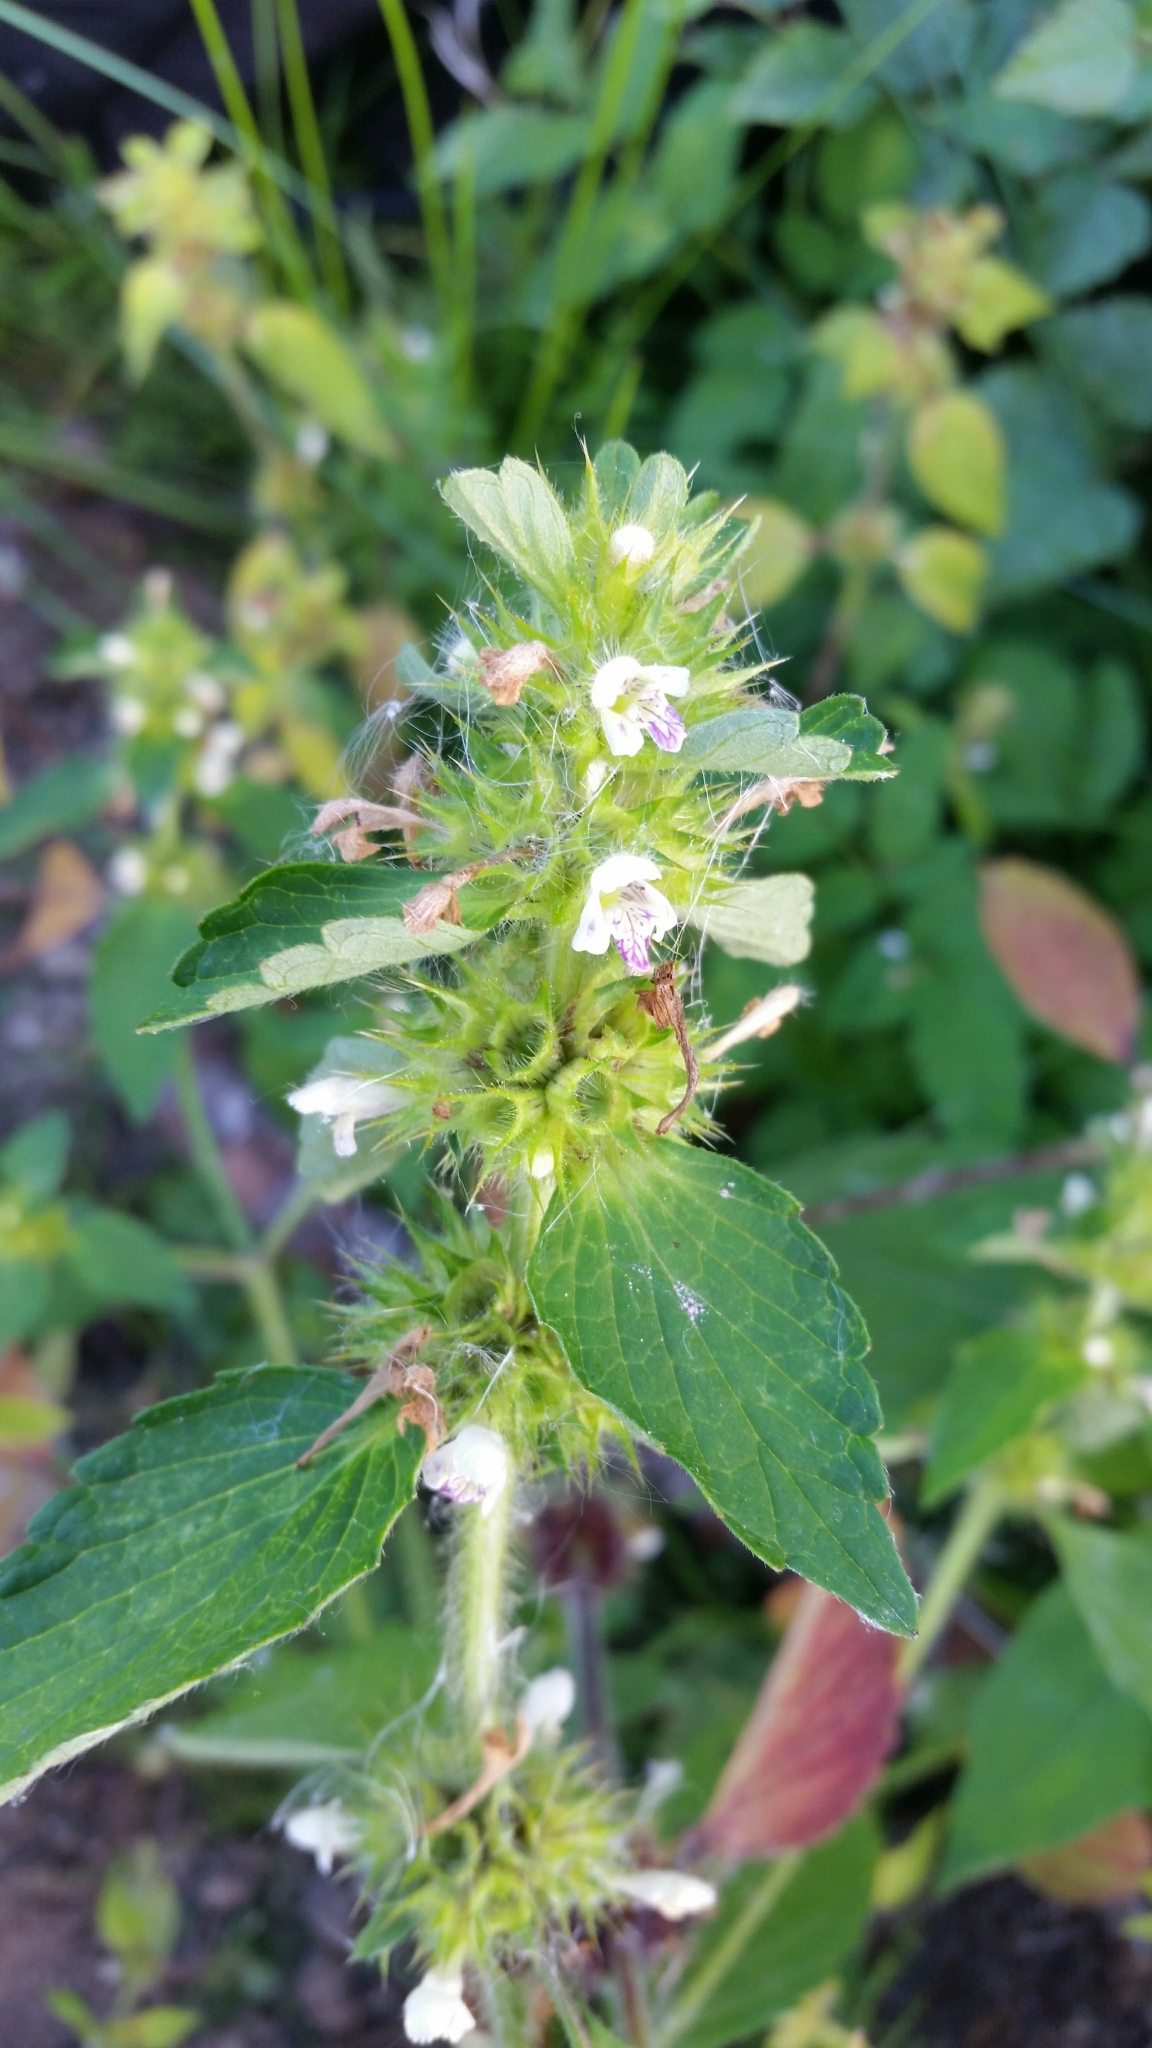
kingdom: Plantae
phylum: Tracheophyta
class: Magnoliopsida
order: Lamiales
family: Lamiaceae
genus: Galeopsis
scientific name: Galeopsis bifida
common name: Bifid hemp-nettle
